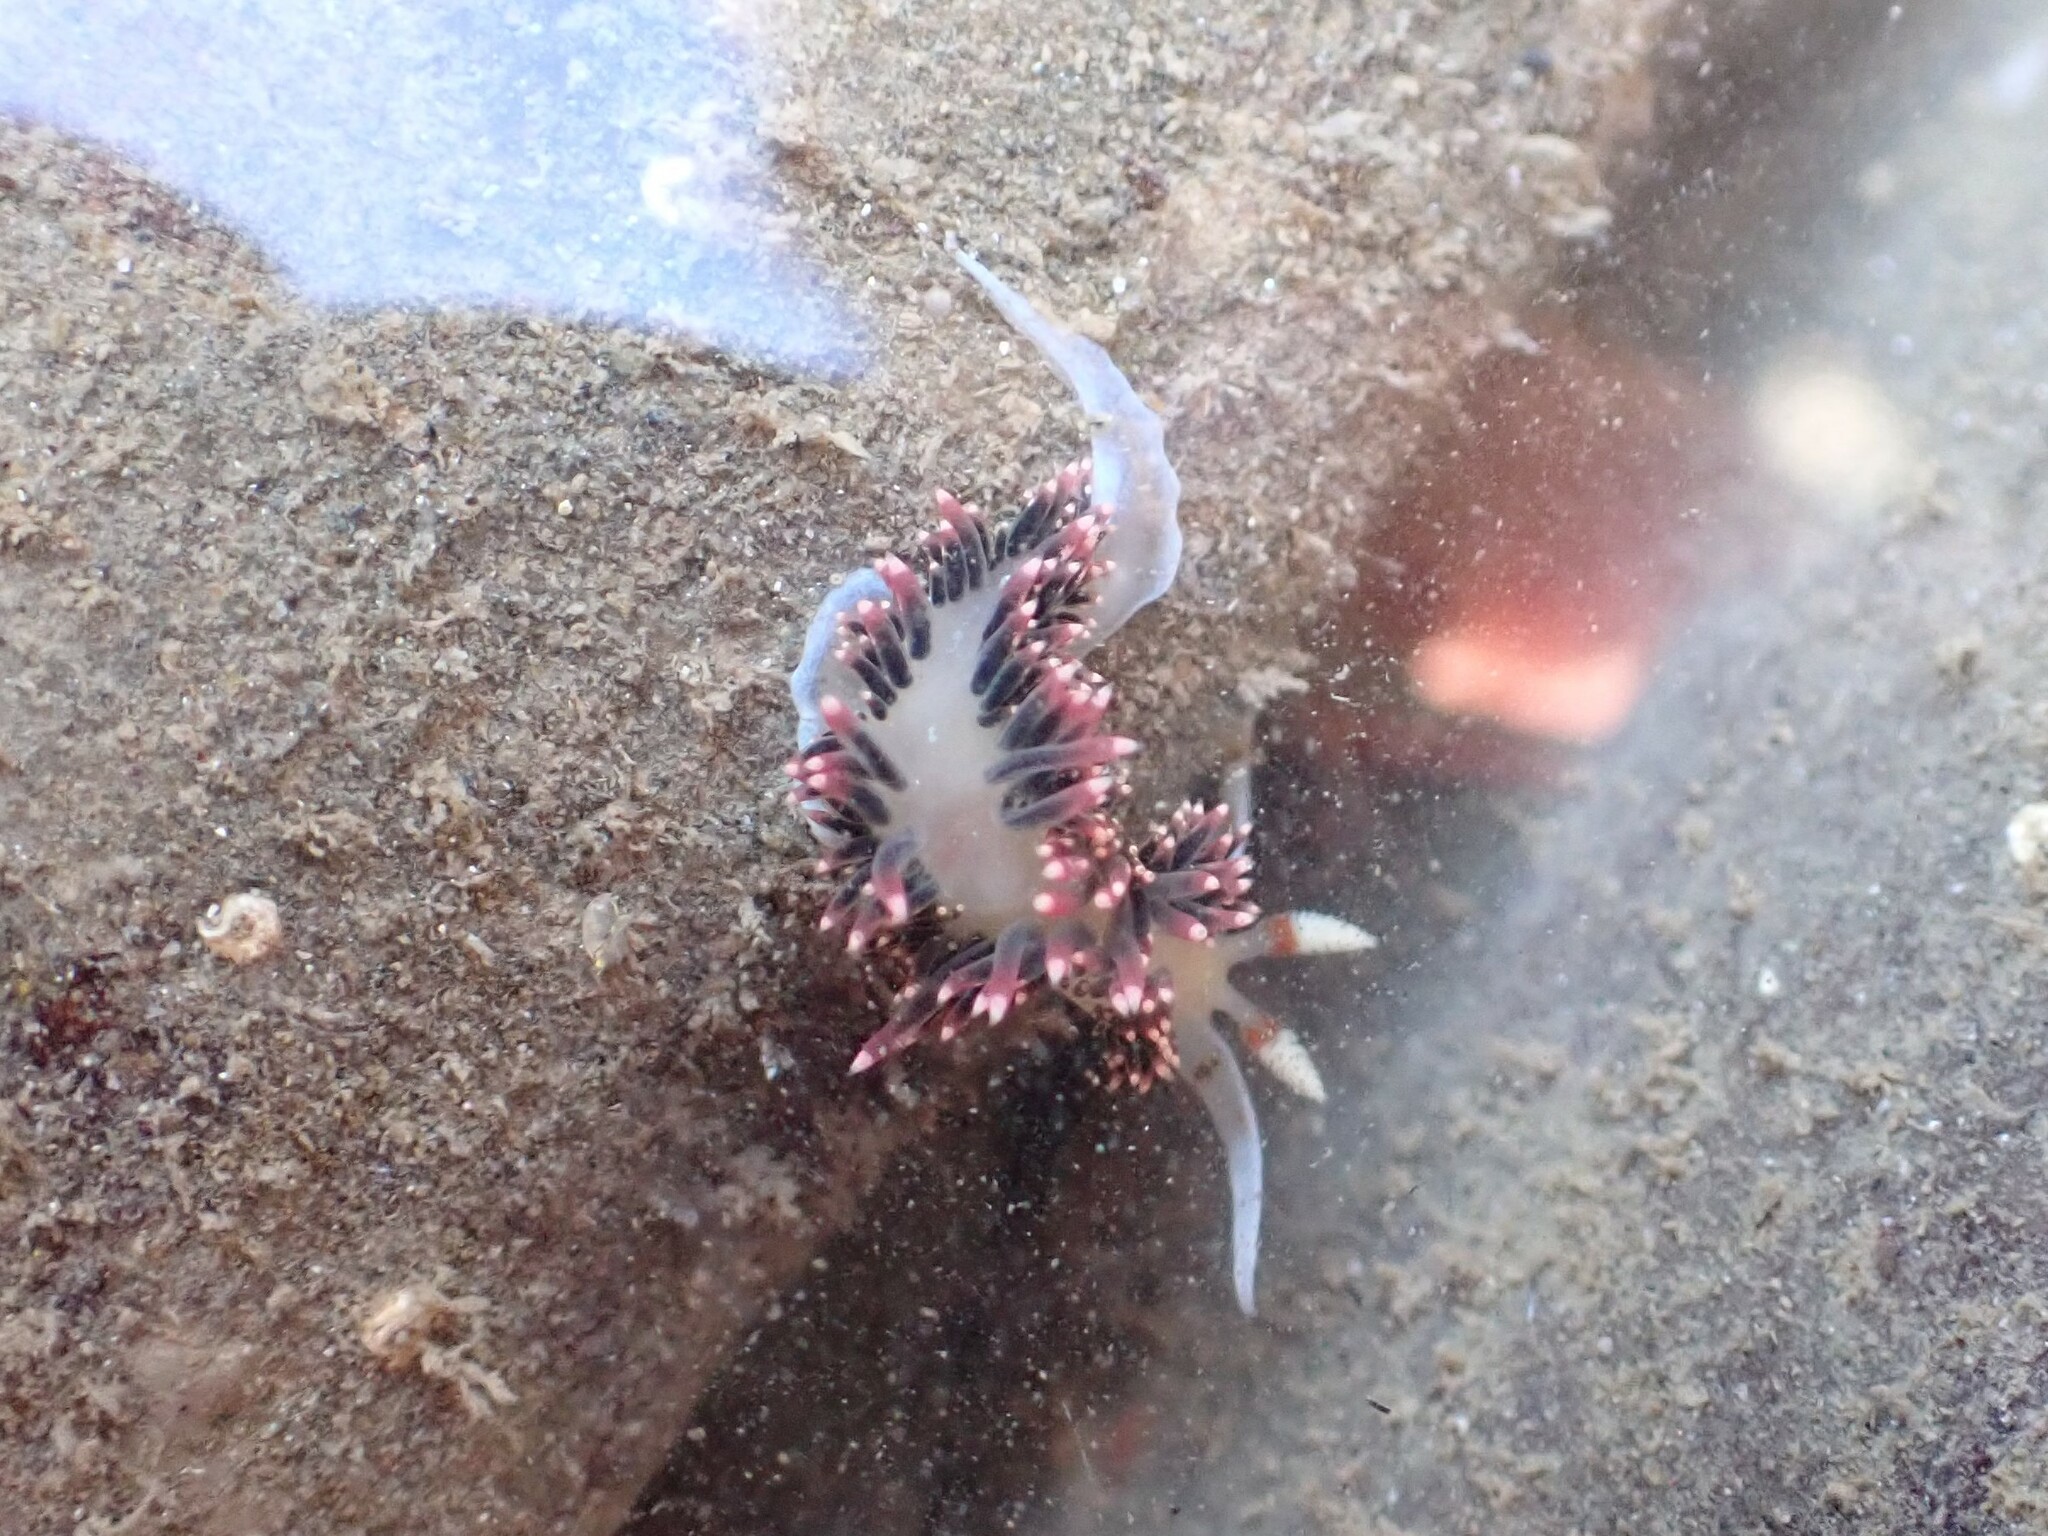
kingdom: Animalia
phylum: Mollusca
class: Gastropoda
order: Nudibranchia
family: Facelinidae
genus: Phidiana
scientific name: Phidiana hiltoni
